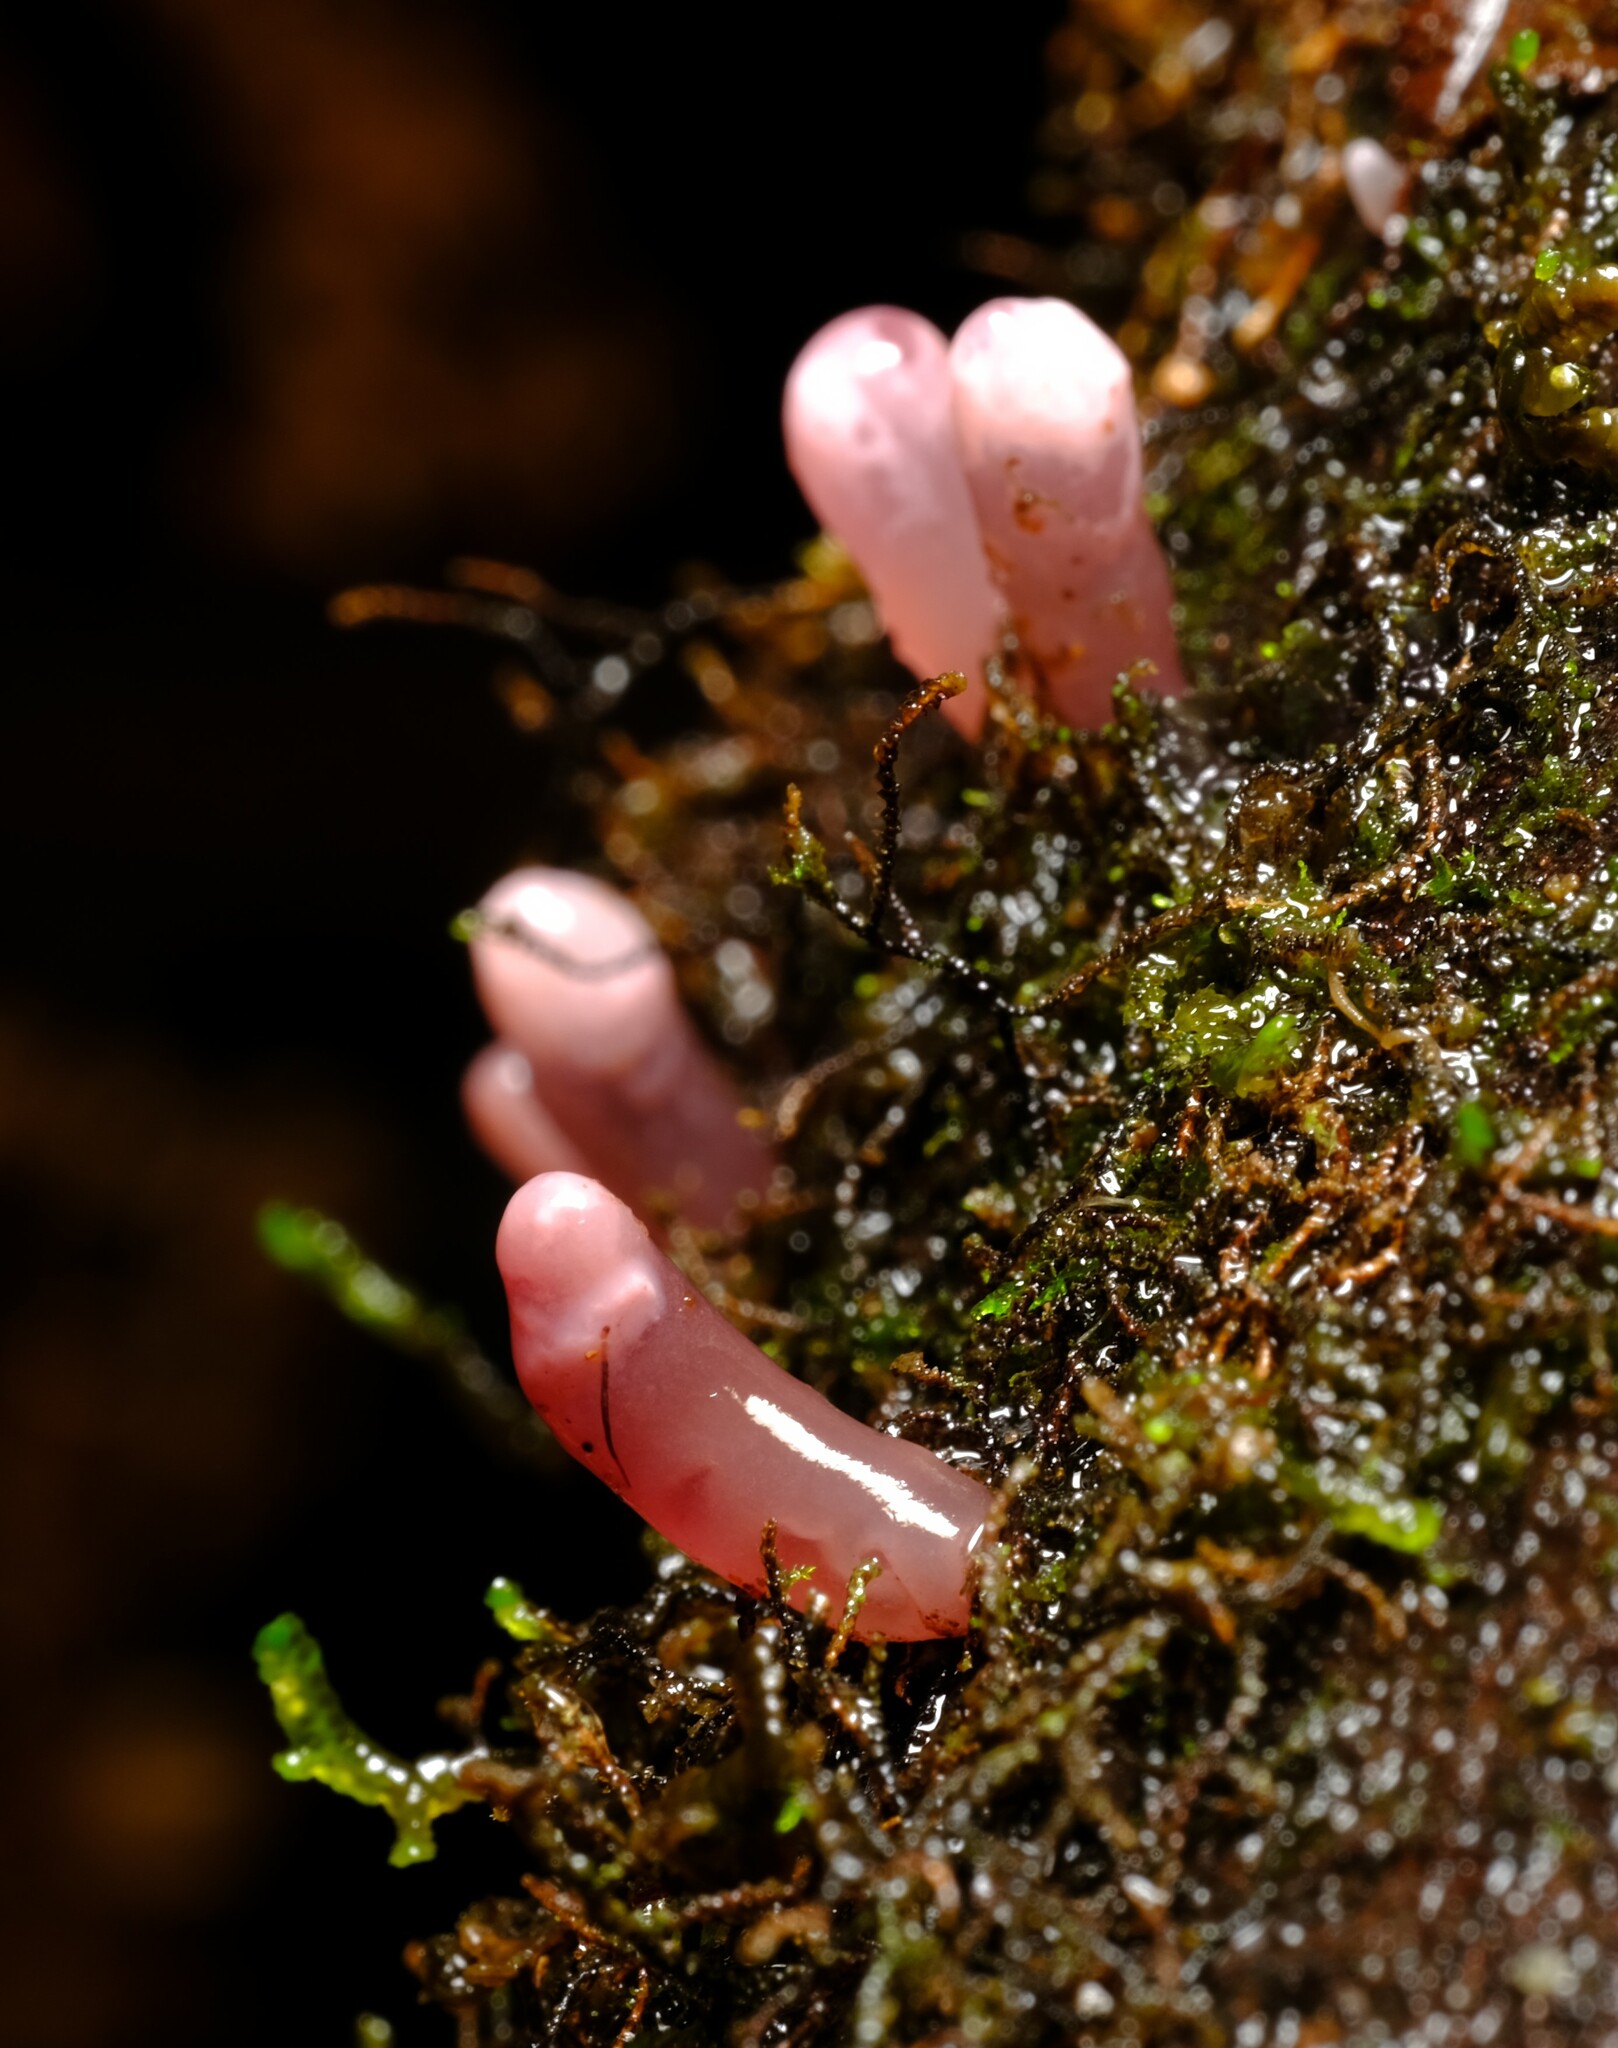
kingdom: Fungi
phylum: Ascomycota
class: Leotiomycetes
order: Helotiales
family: Gelatinodiscaceae
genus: Ascocoryne
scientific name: Ascocoryne sarcoides
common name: Purple jellydisc
